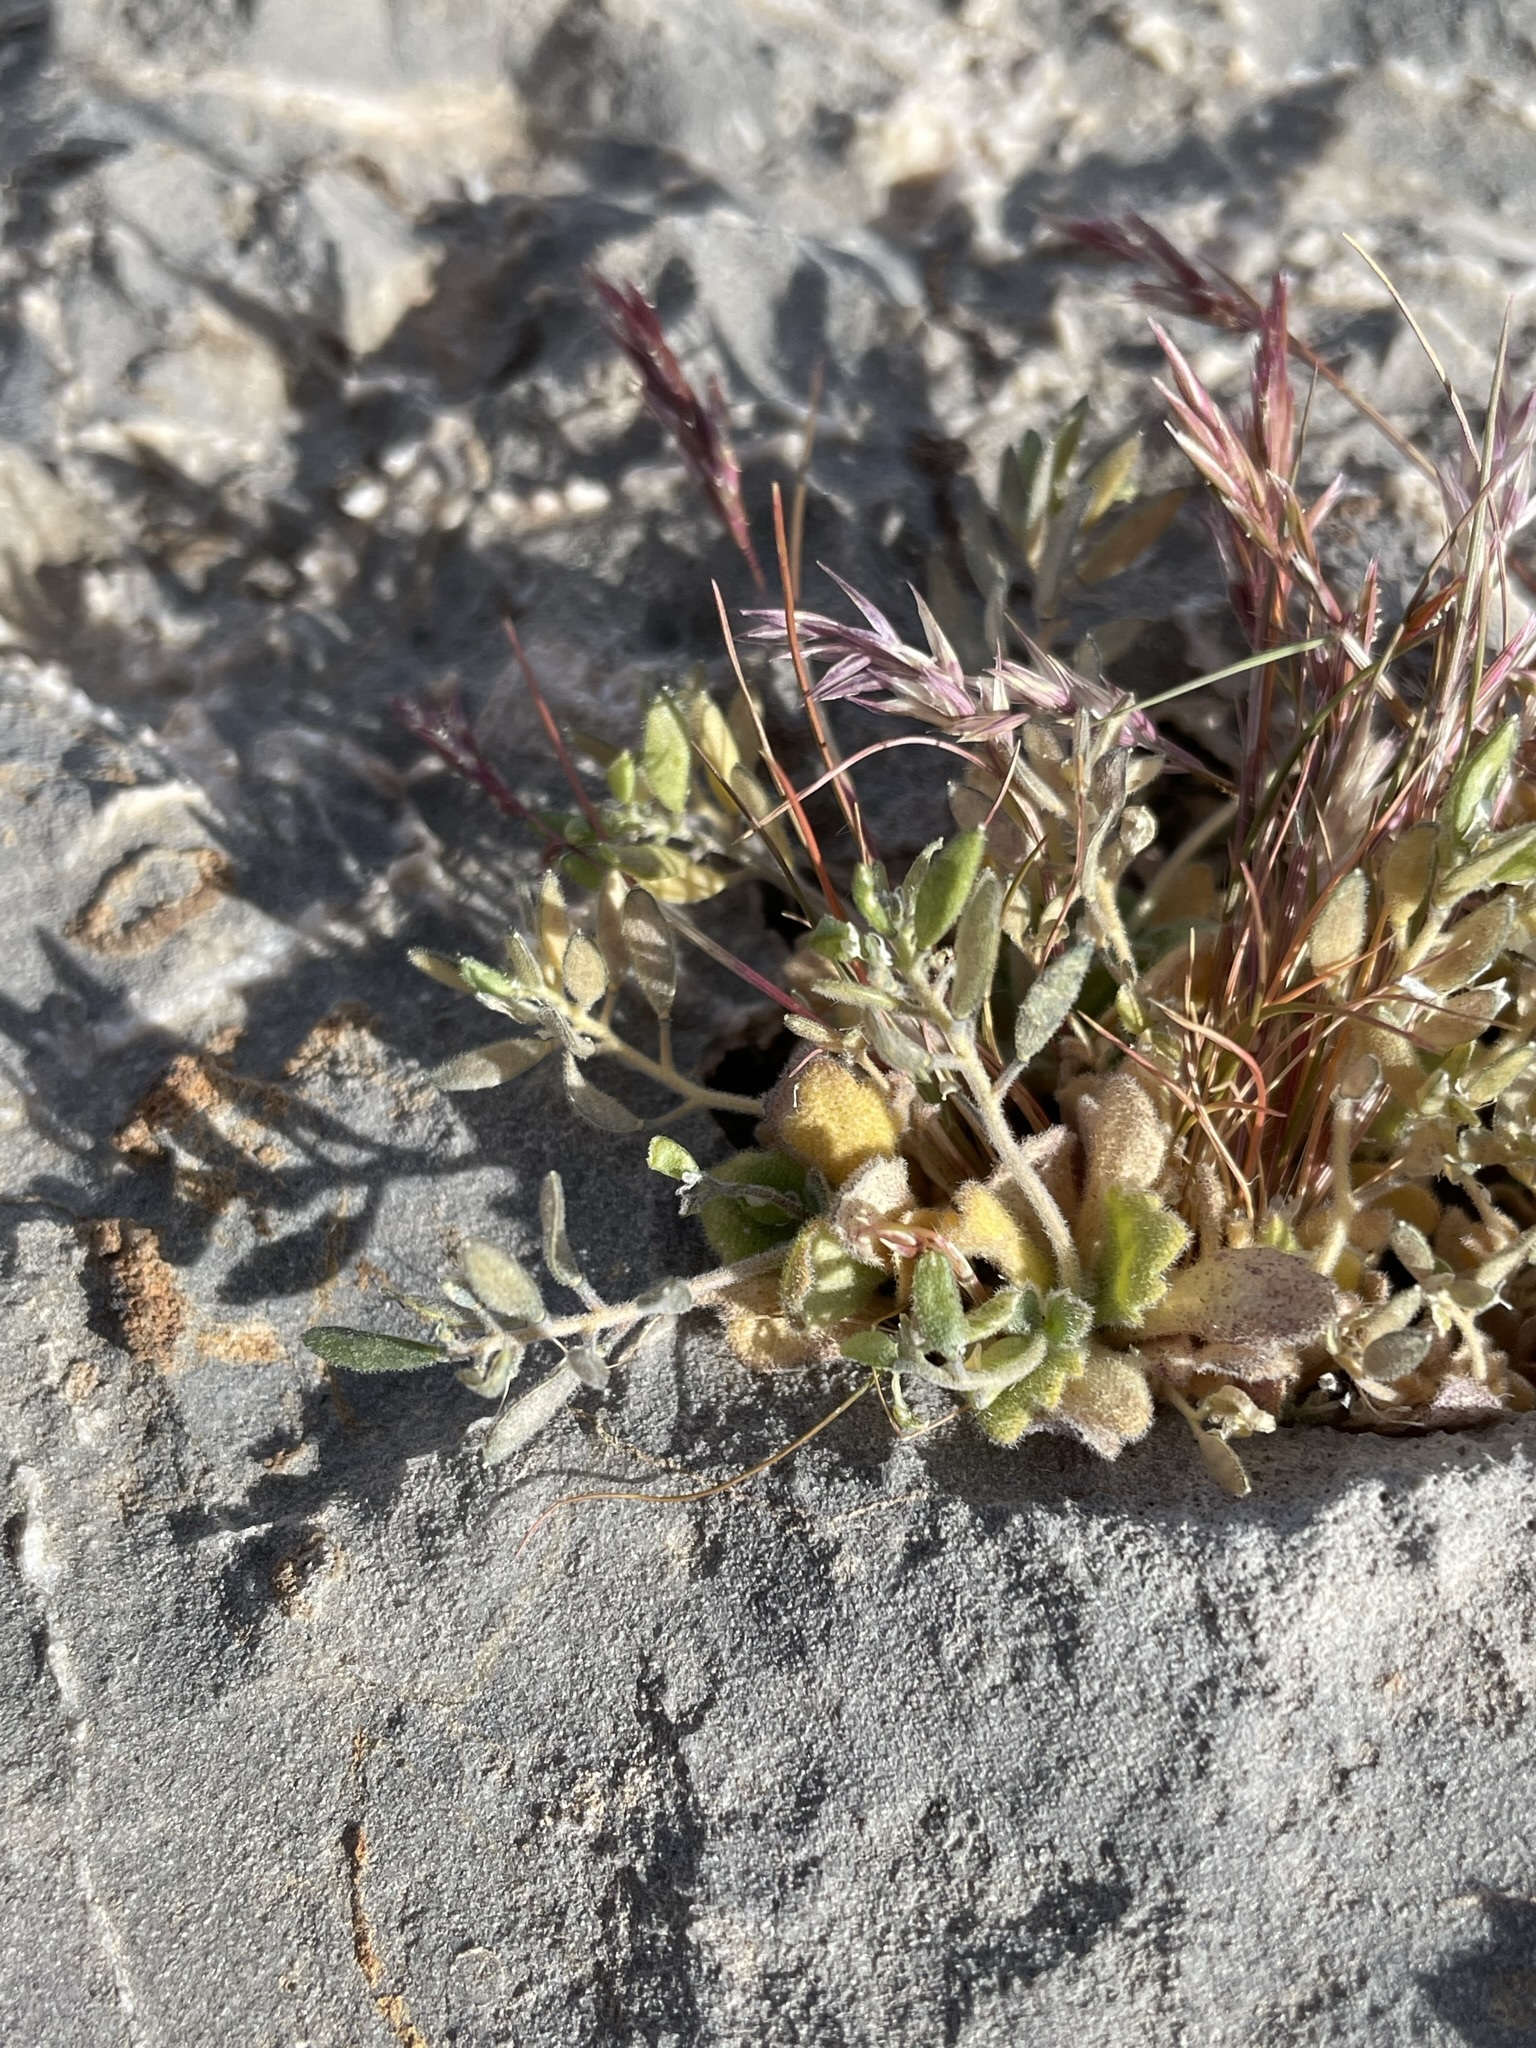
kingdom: Plantae
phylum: Tracheophyta
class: Magnoliopsida
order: Brassicales
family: Brassicaceae
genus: Tomostima
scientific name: Tomostima cuneifolia
